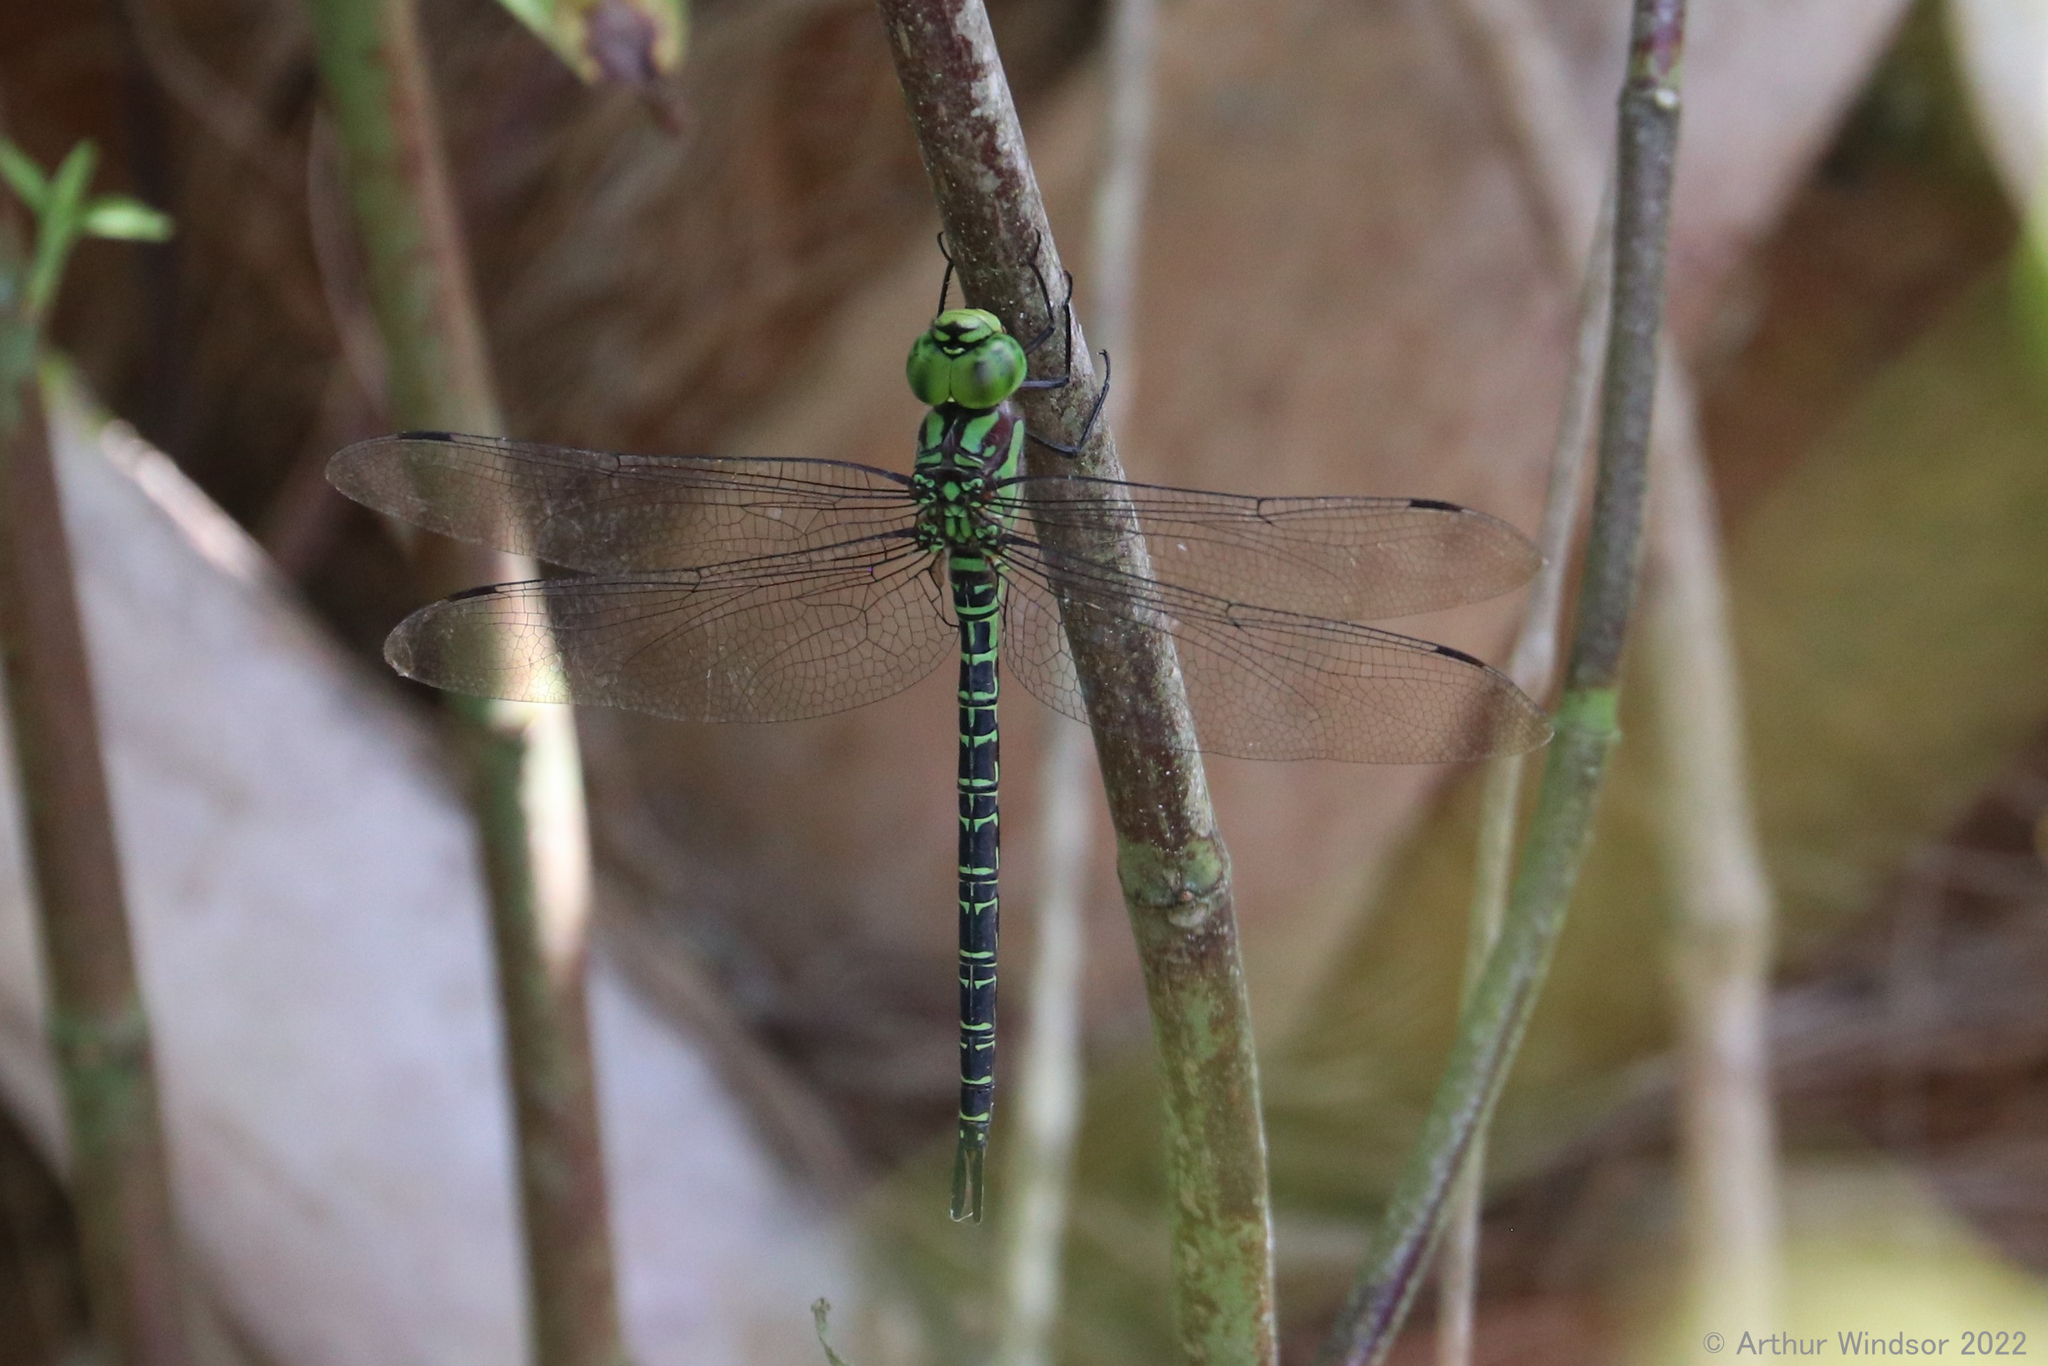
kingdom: Animalia
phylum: Arthropoda
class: Insecta
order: Odonata
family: Aeshnidae
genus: Coryphaeschna
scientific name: Coryphaeschna ingens
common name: Regal darner
